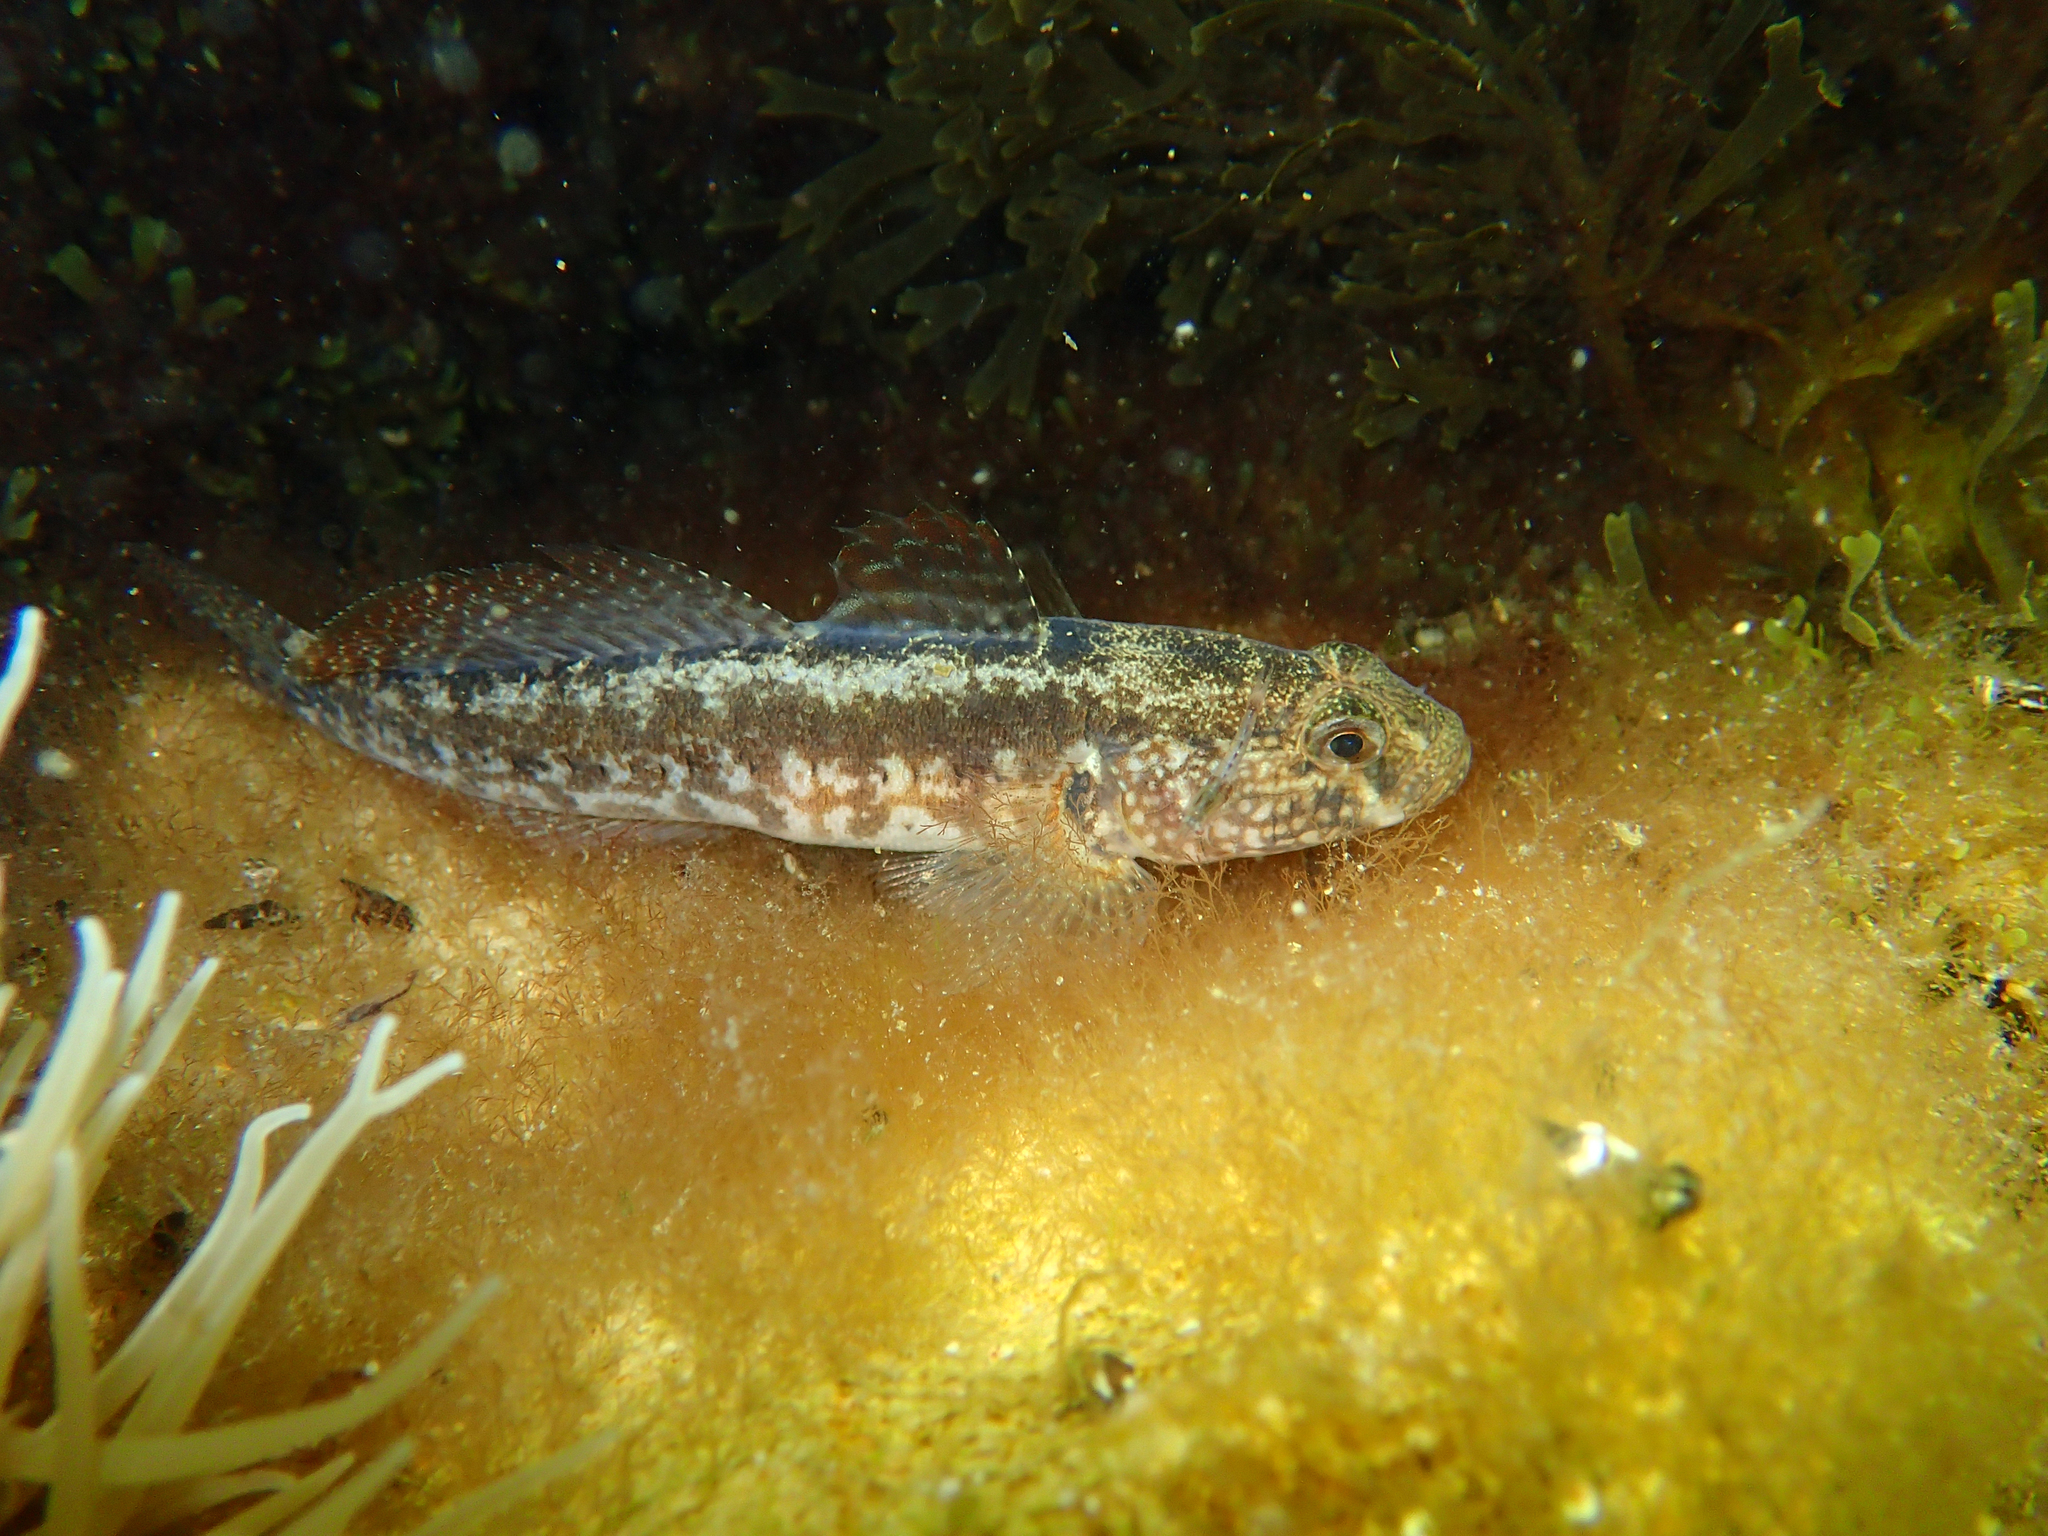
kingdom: Animalia
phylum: Chordata
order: Perciformes
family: Gobiidae
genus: Zosterisessor
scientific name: Zosterisessor ophiocephalus
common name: Grass goby
